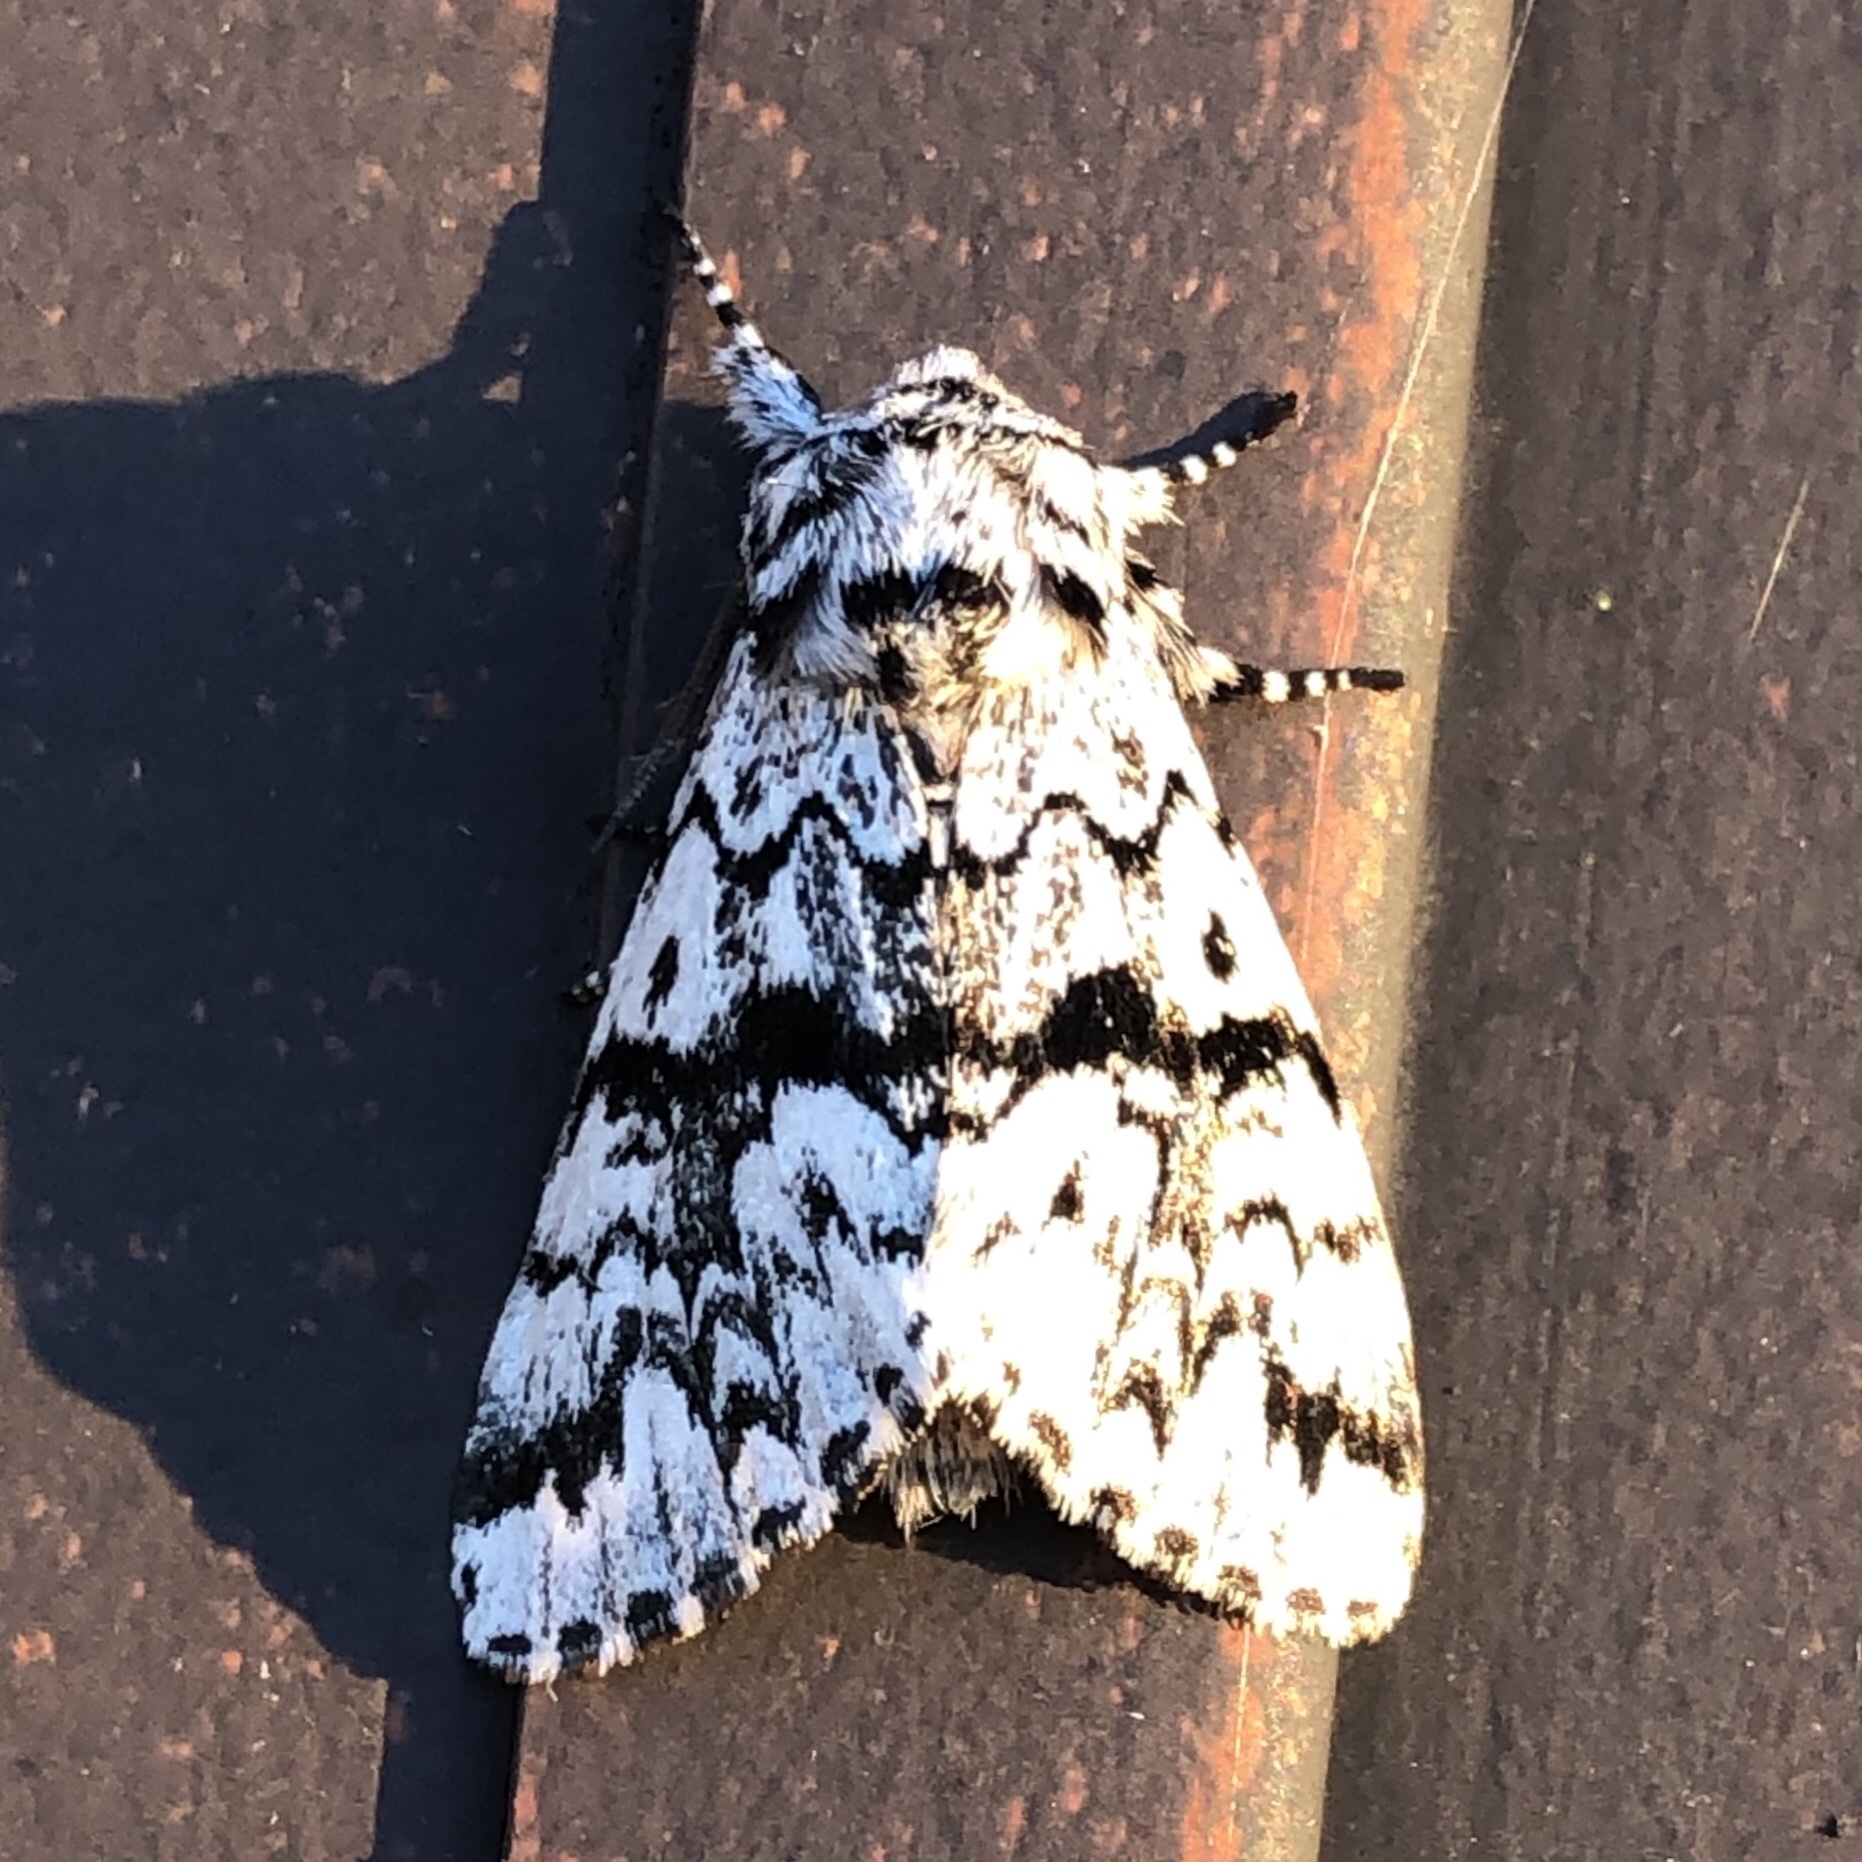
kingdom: Animalia
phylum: Arthropoda
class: Insecta
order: Lepidoptera
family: Noctuidae
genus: Panthea
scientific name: Panthea acronyctoides
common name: Black zigzag moth
